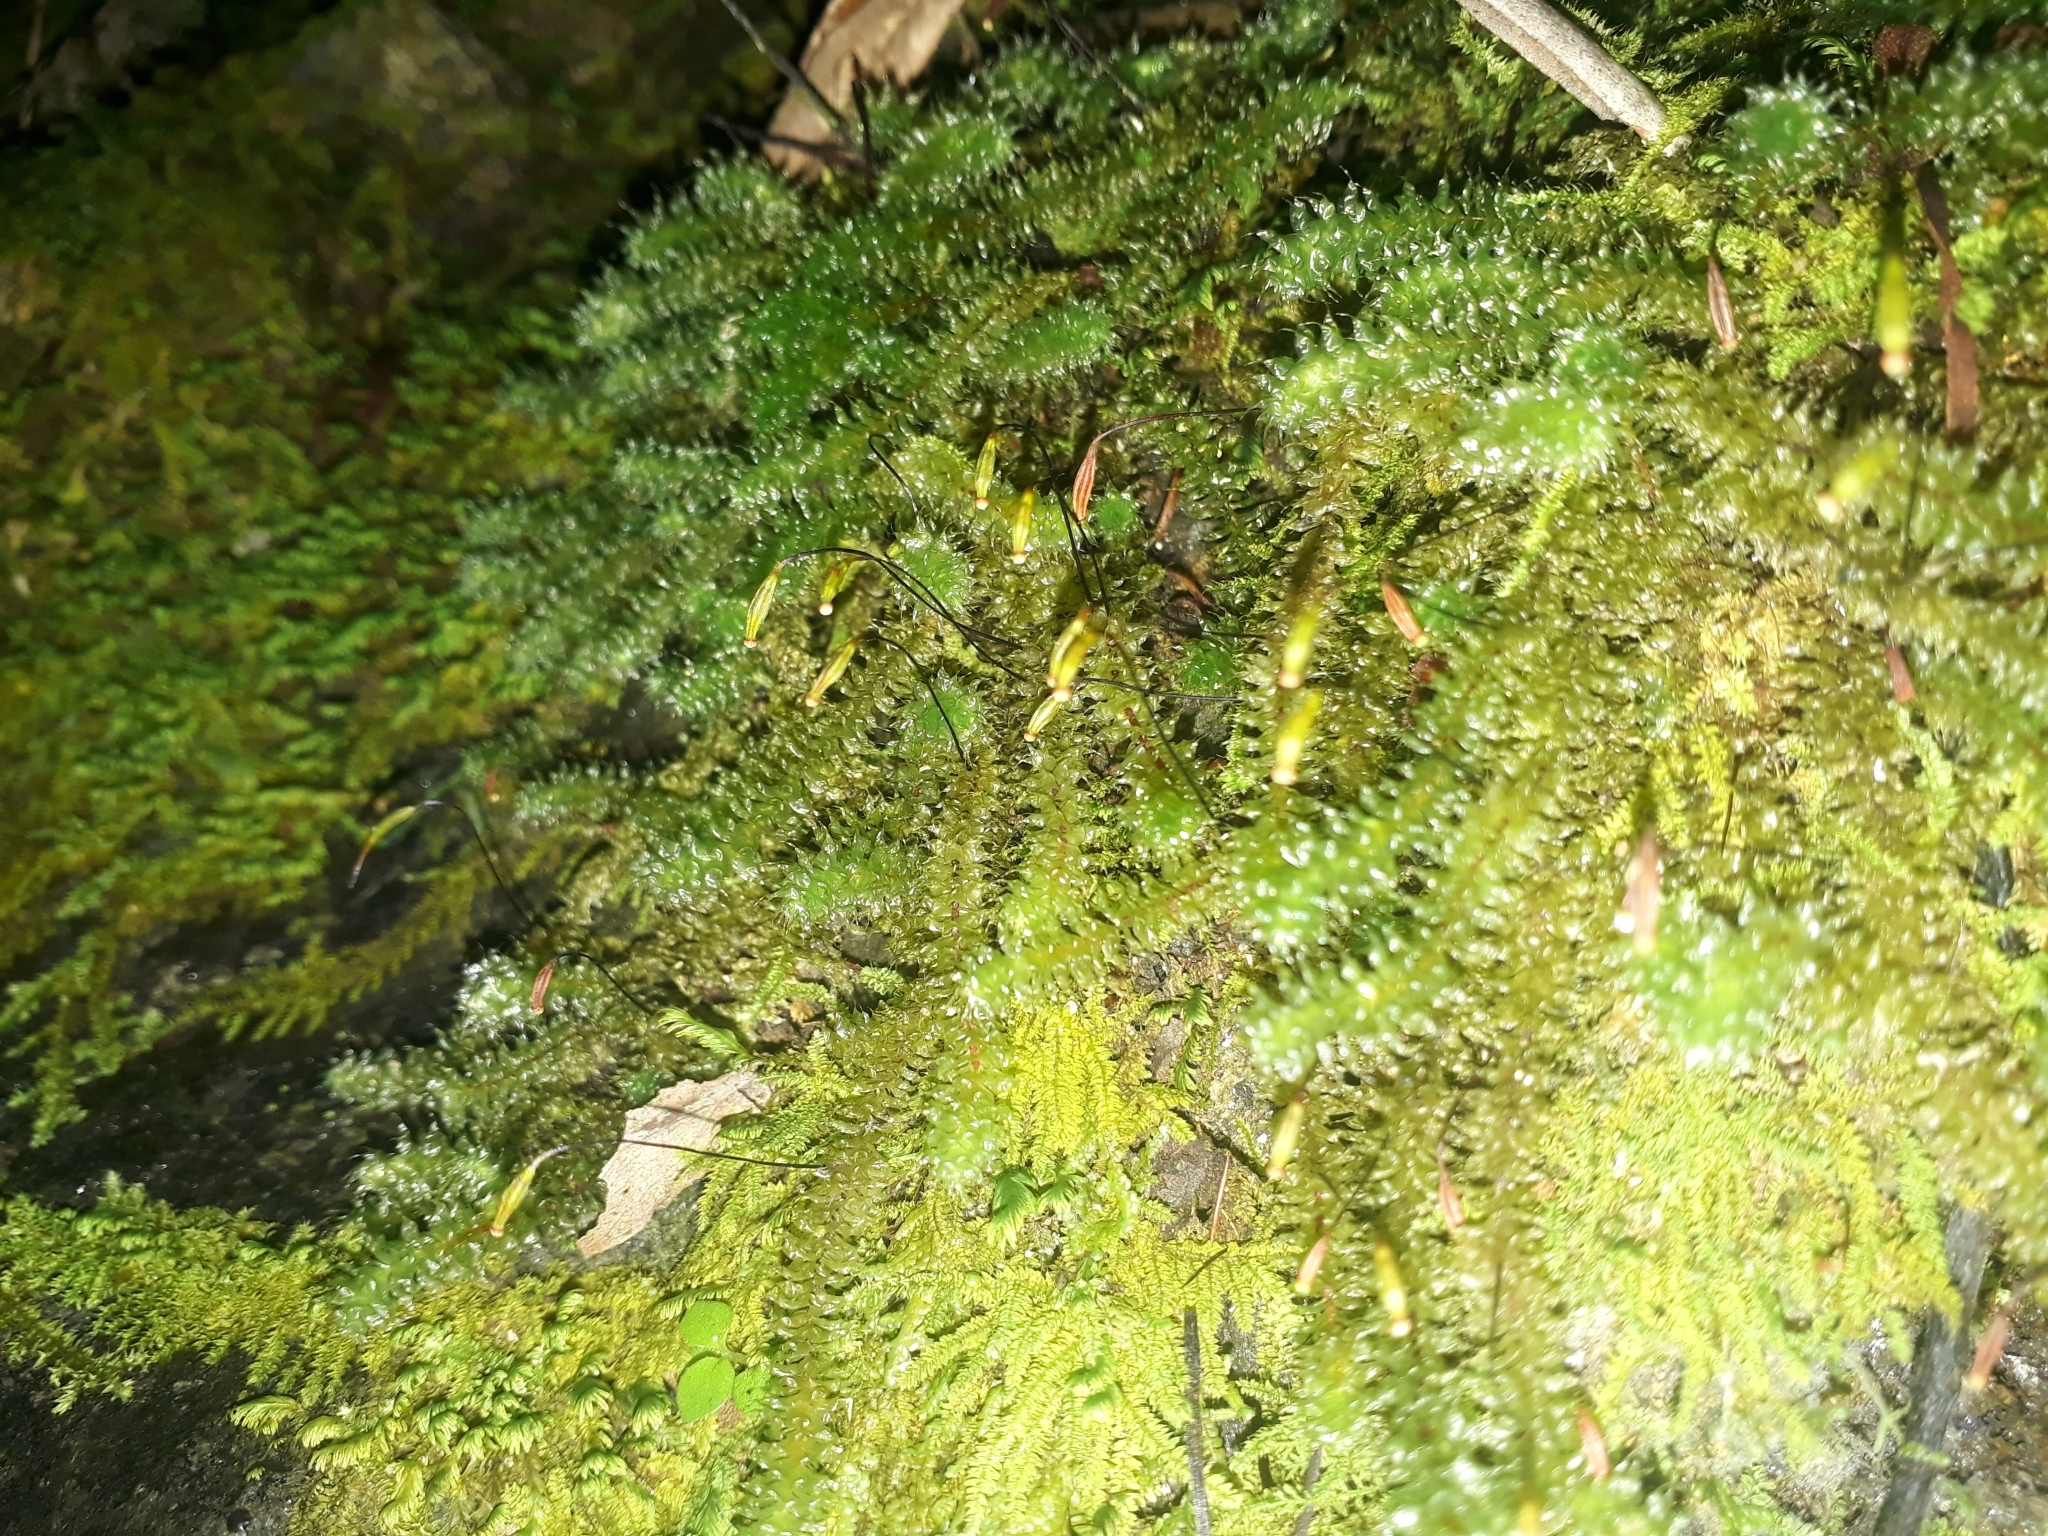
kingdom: Plantae
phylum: Bryophyta
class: Bryopsida
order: Ptychomniales
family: Ptychomniaceae
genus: Ptychomnion
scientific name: Ptychomnion aciculare
